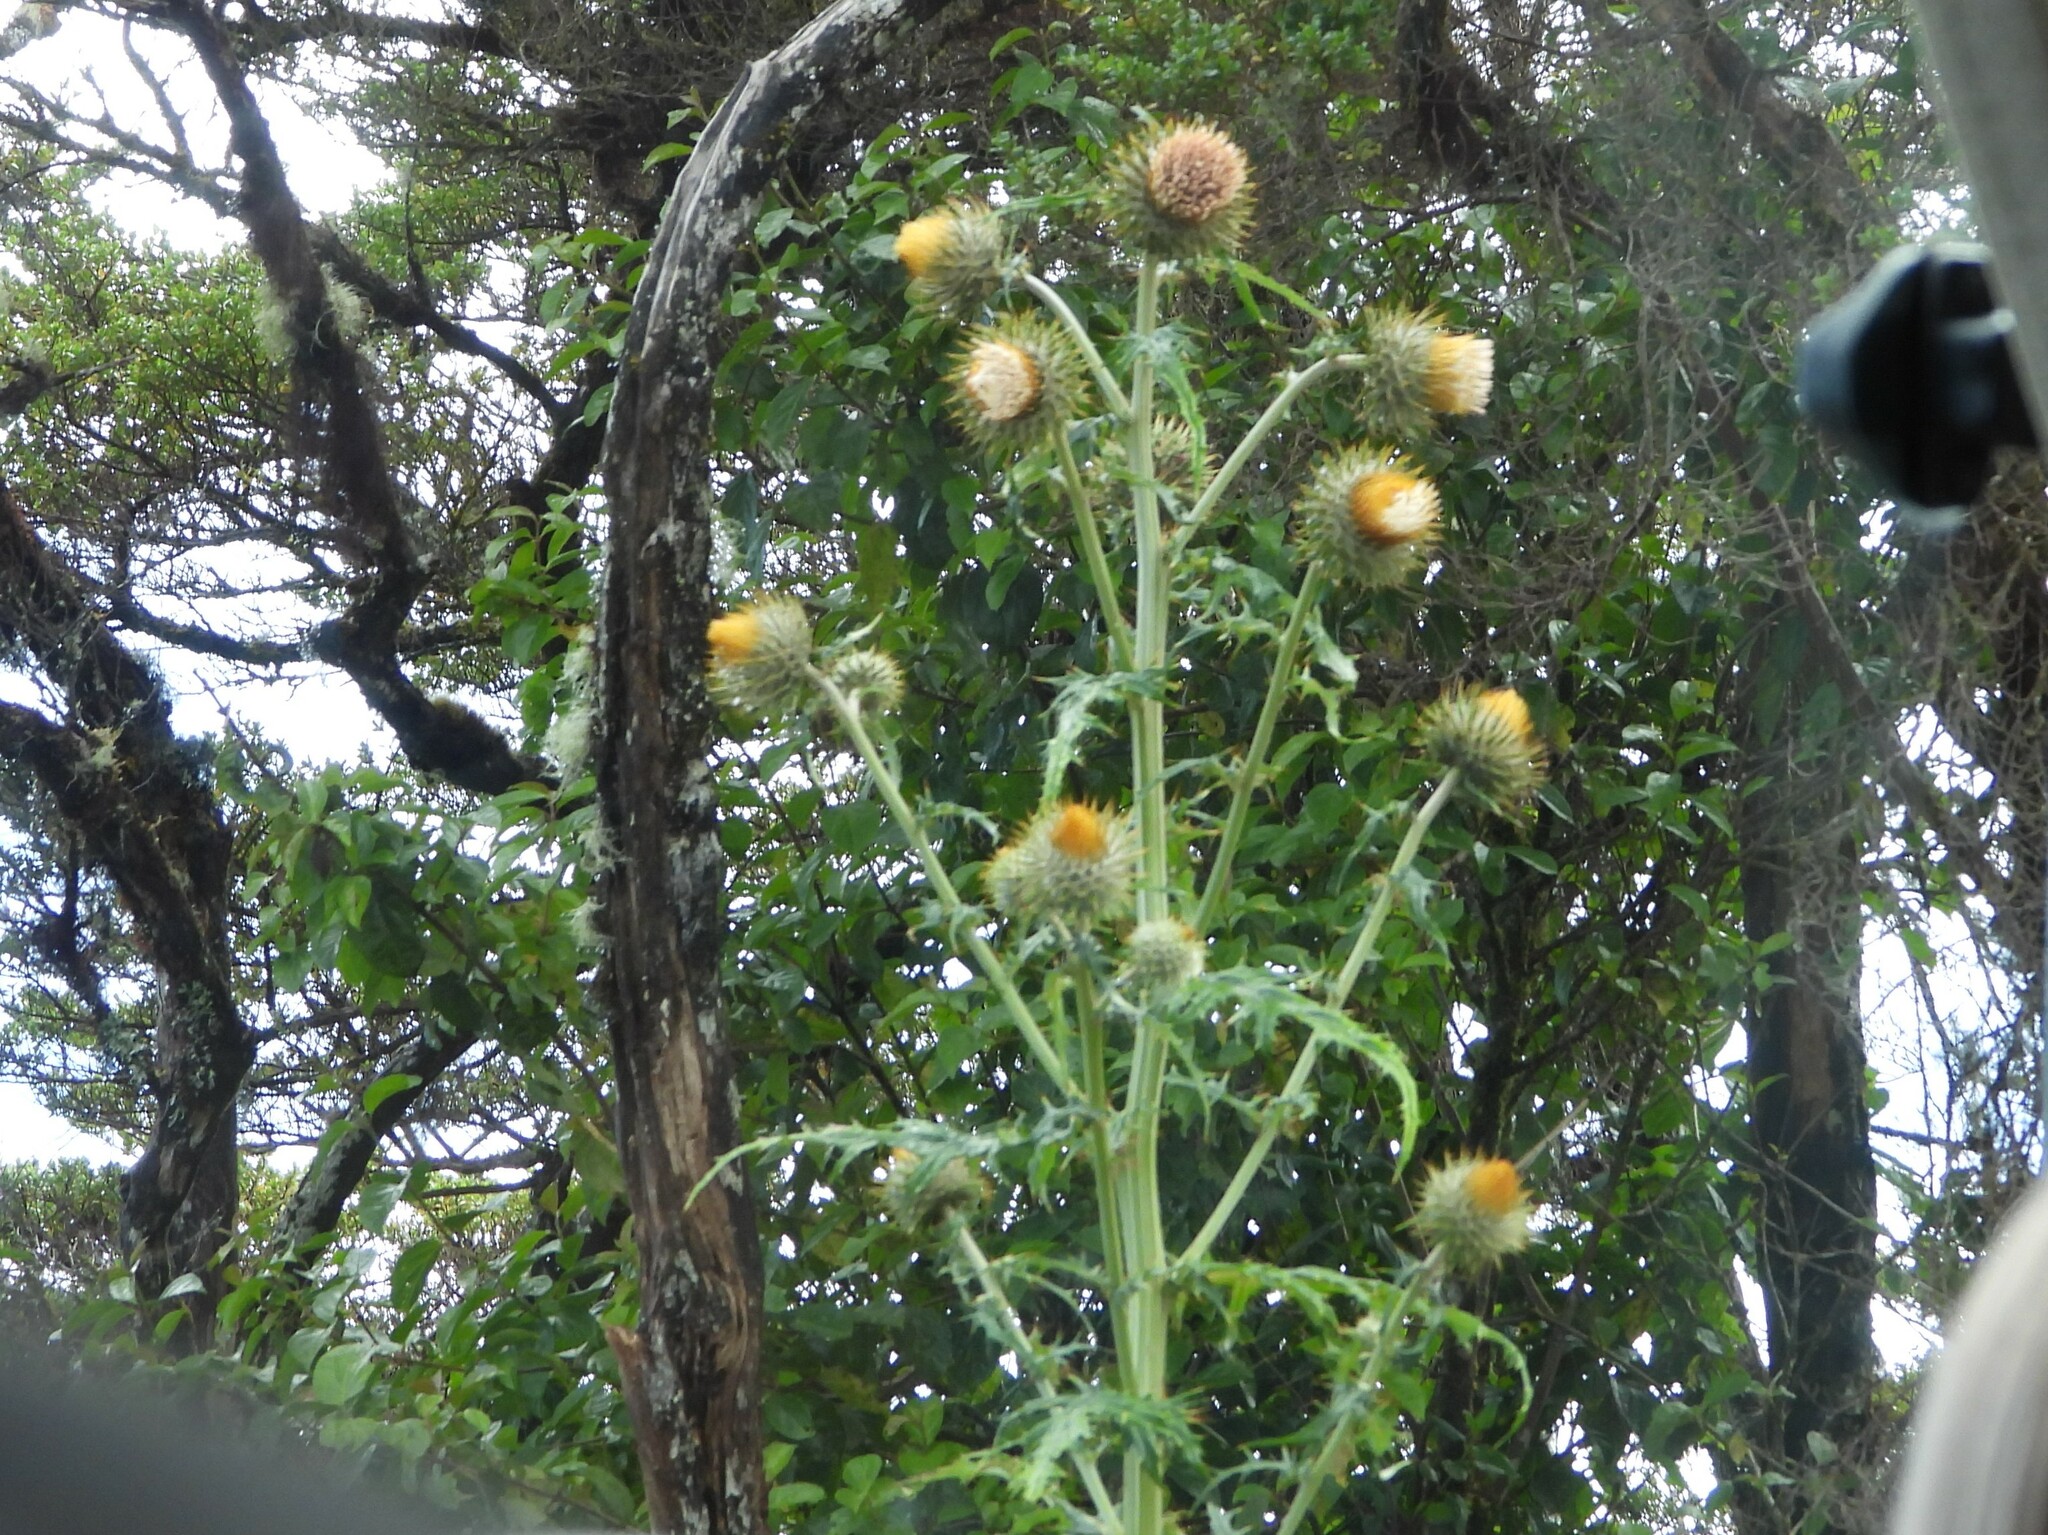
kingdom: Plantae
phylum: Tracheophyta
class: Magnoliopsida
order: Asterales
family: Asteraceae
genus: Cirsium
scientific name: Cirsium subcoriaceum
